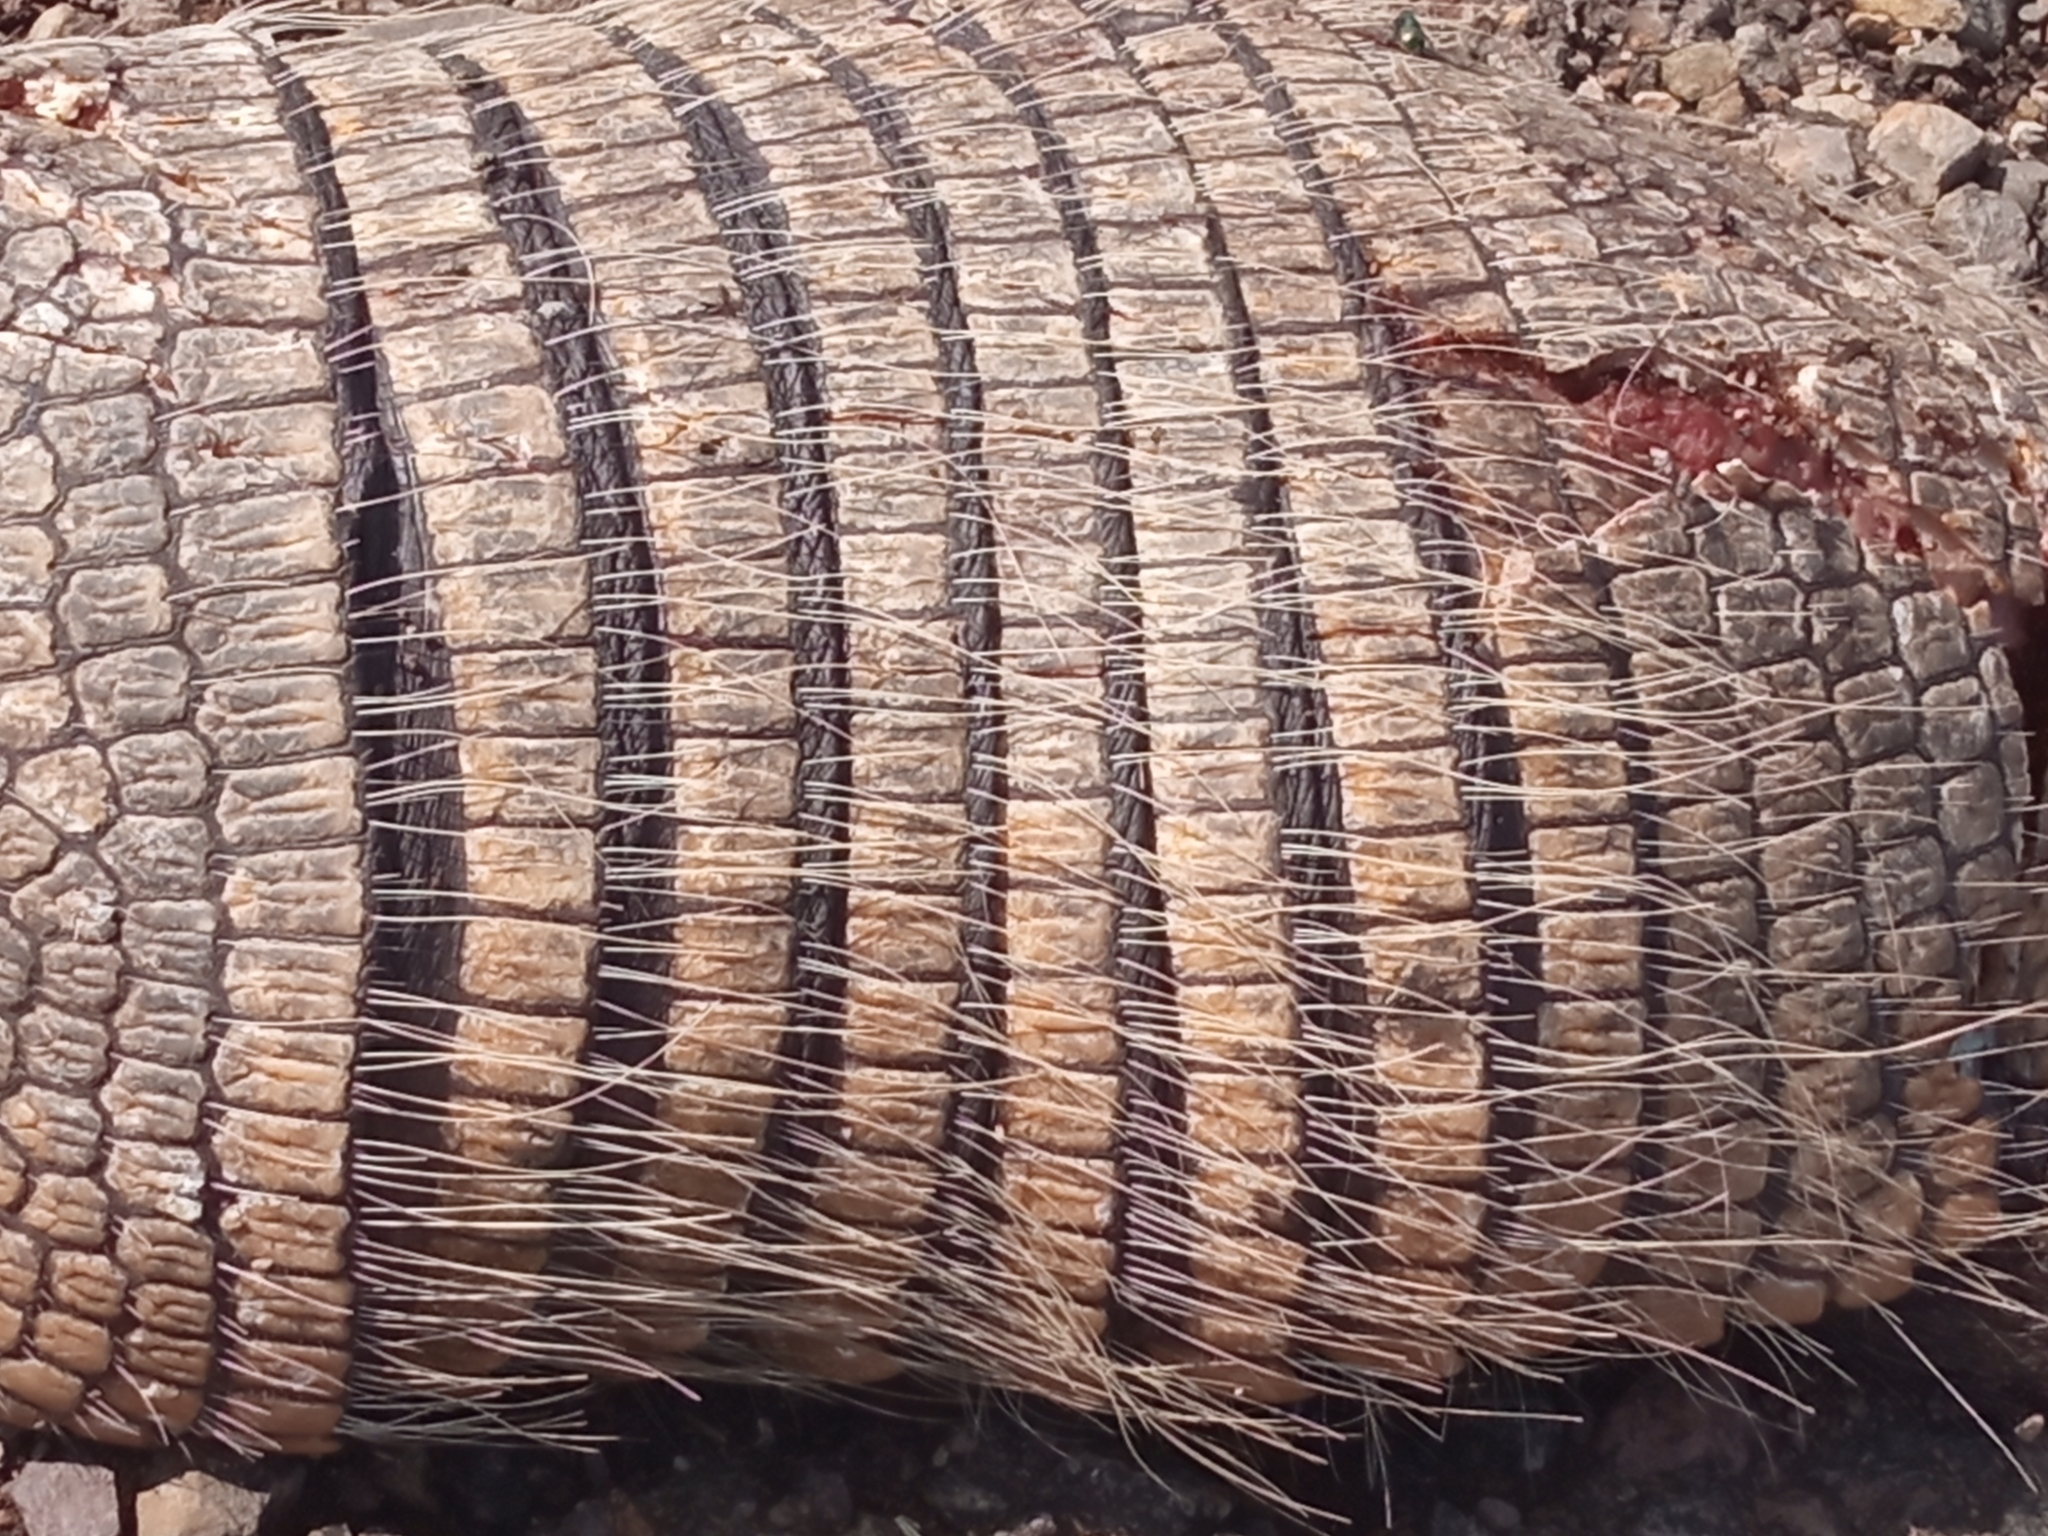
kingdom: Animalia
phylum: Chordata
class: Mammalia
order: Cingulata
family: Dasypodidae
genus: Euphractus
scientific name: Euphractus sexcinctus
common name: Six-banded armadillo
